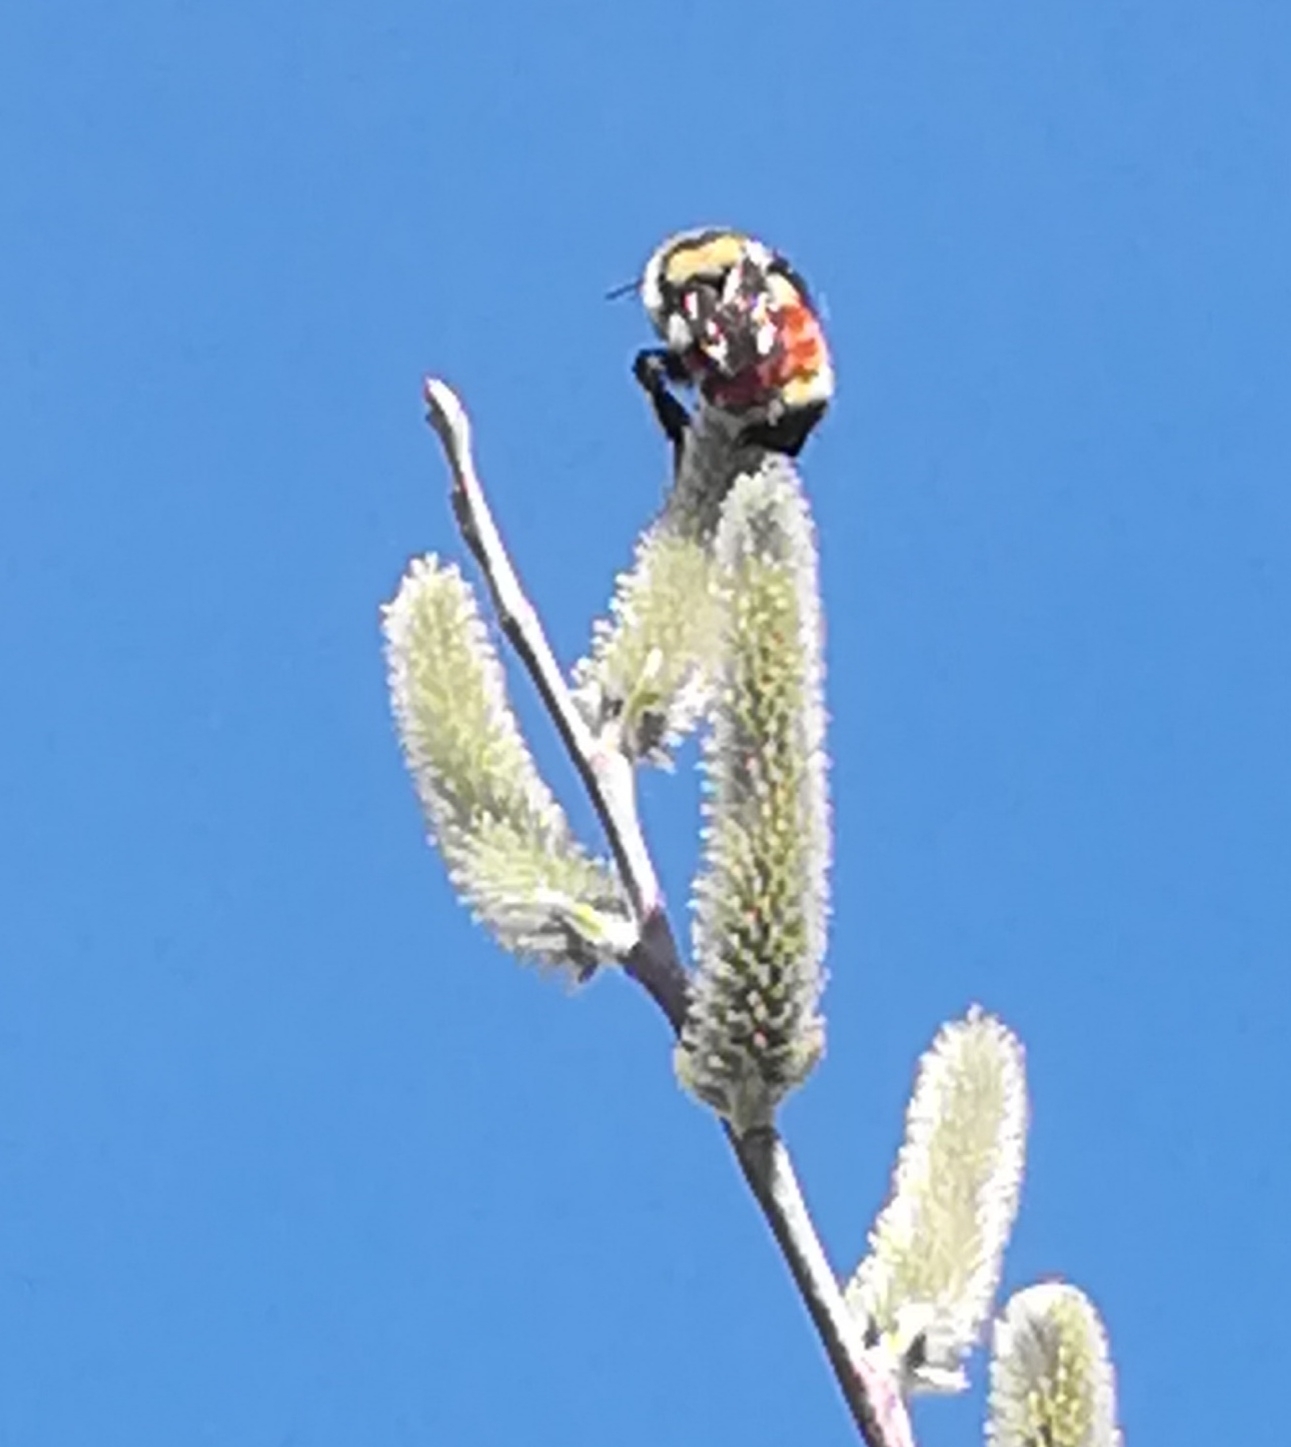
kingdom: Animalia
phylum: Arthropoda
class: Insecta
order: Hymenoptera
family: Apidae
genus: Bombus
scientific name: Bombus huntii
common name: Hunt bumble bee
